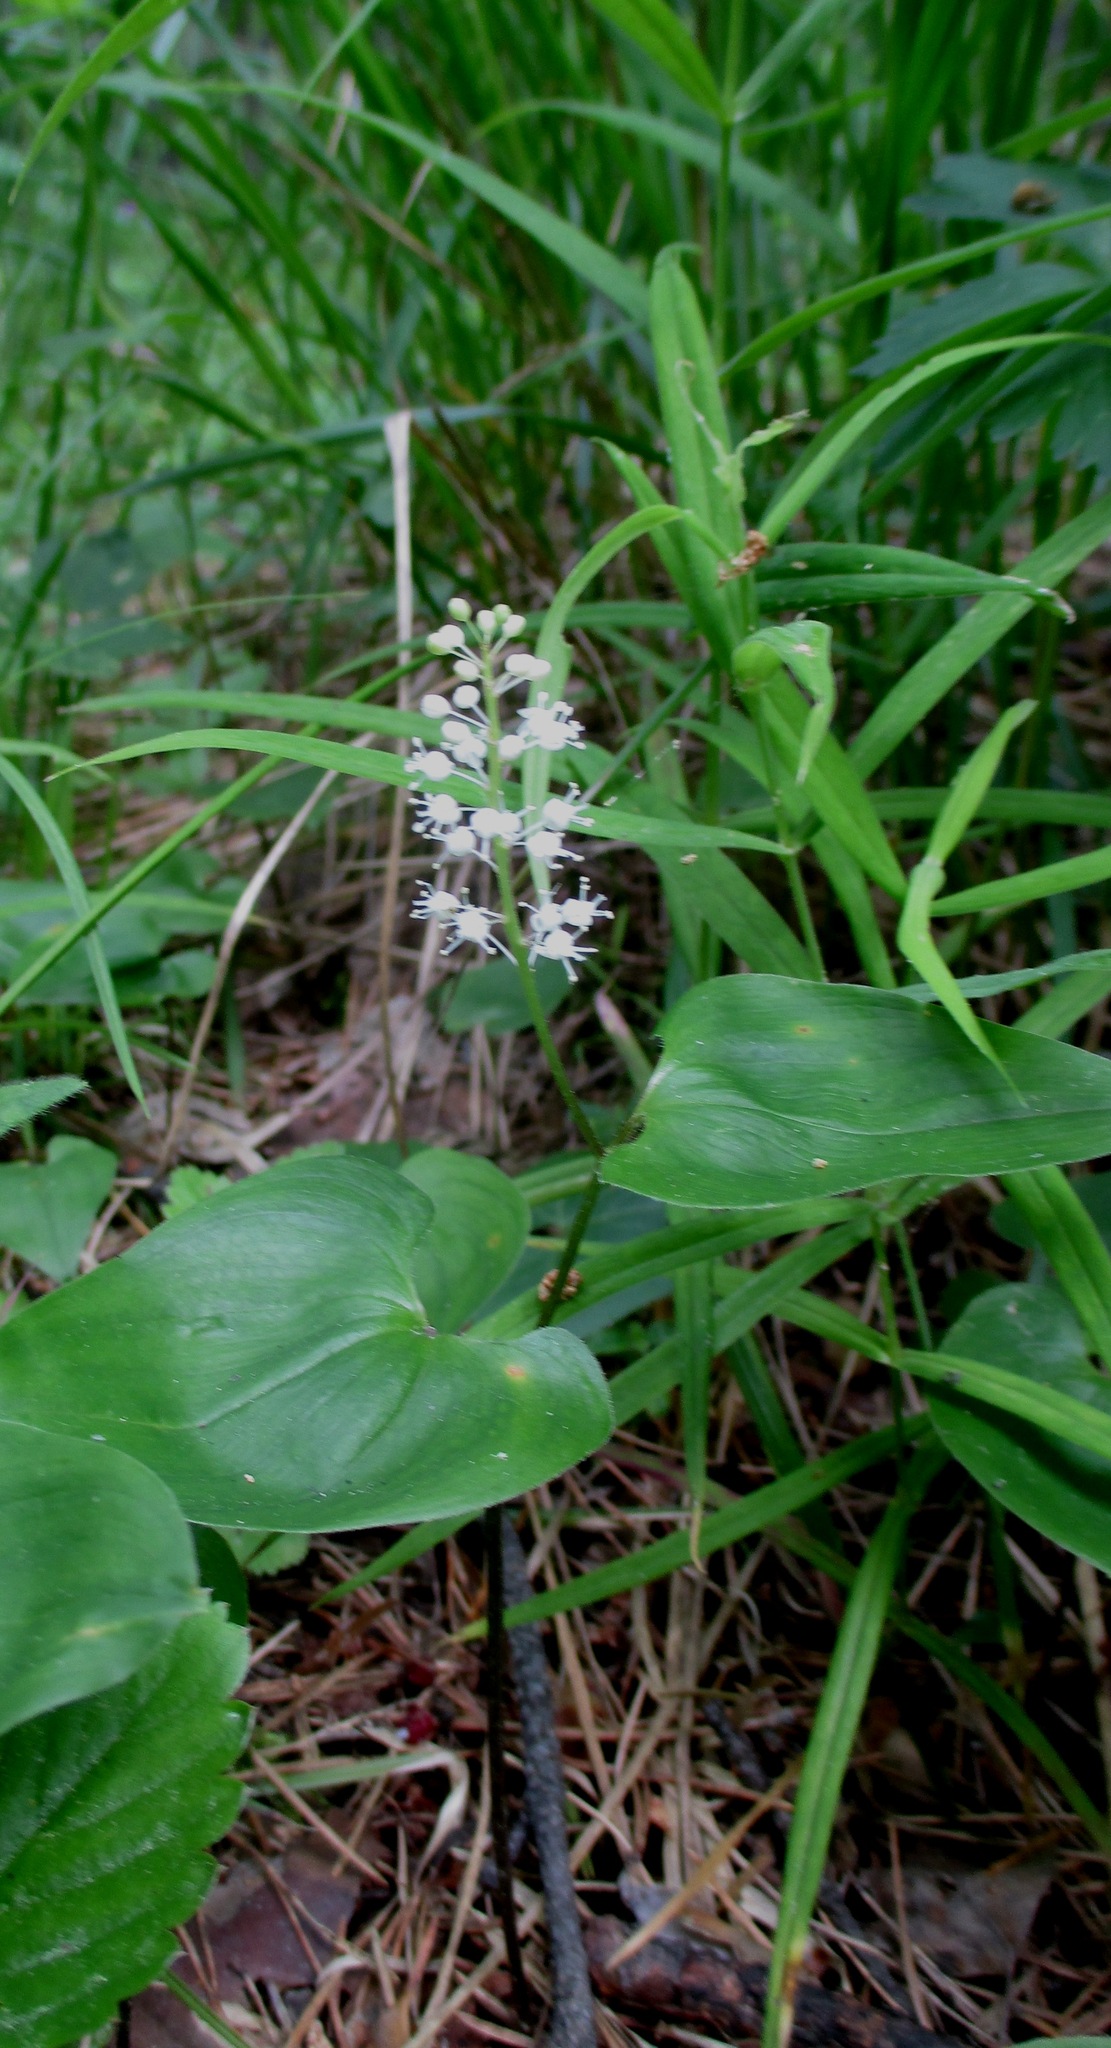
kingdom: Plantae
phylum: Tracheophyta
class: Liliopsida
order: Asparagales
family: Asparagaceae
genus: Maianthemum
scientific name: Maianthemum bifolium
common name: May lily
